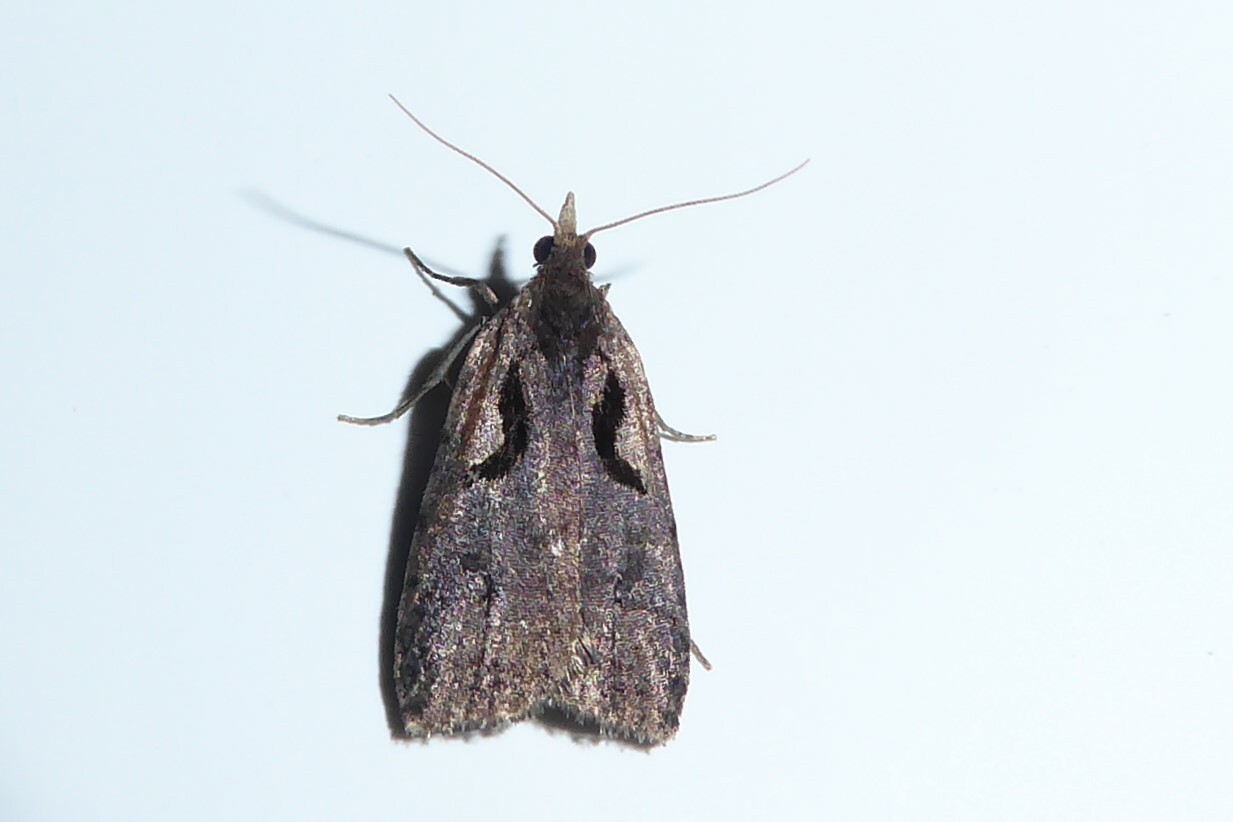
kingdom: Animalia
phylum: Arthropoda
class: Insecta
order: Lepidoptera
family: Tortricidae
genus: Cnephasia
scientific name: Cnephasia jactatana
